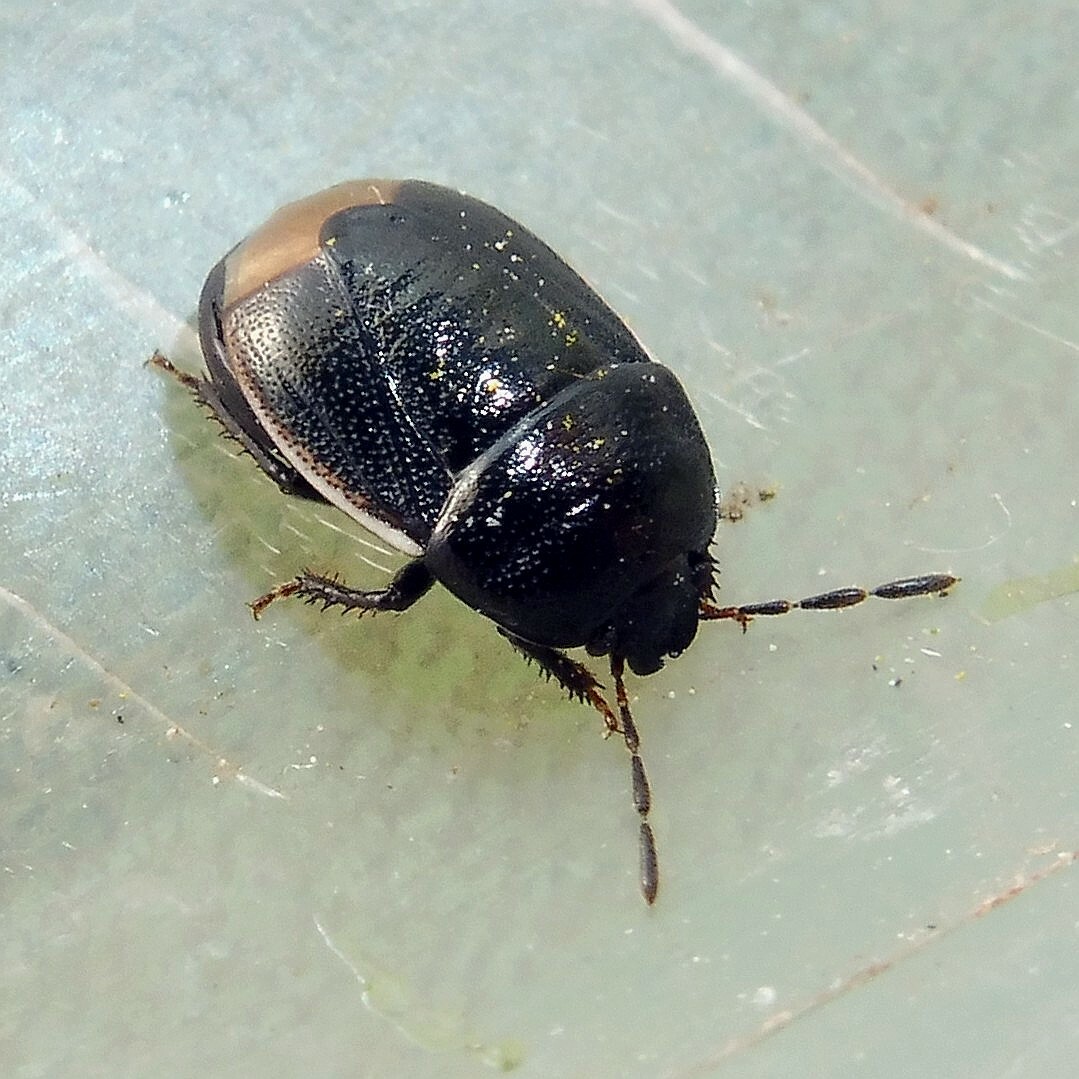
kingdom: Animalia
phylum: Arthropoda
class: Insecta
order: Hemiptera
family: Cydnidae
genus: Legnotus
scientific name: Legnotus limbosus
